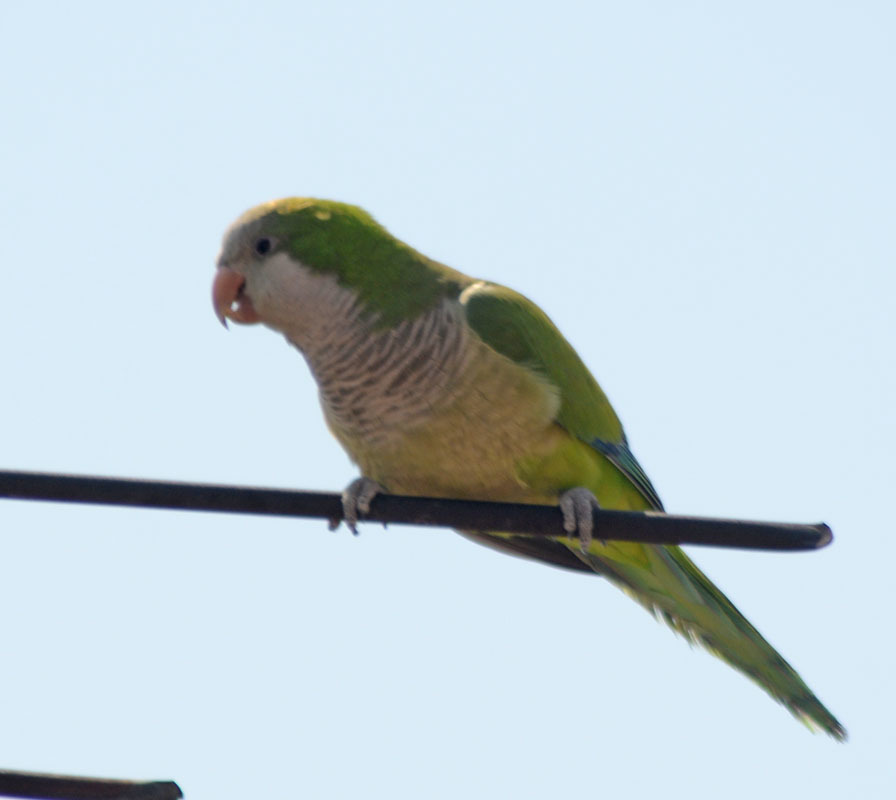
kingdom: Animalia
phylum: Chordata
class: Aves
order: Psittaciformes
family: Psittacidae
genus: Myiopsitta
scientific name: Myiopsitta monachus
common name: Monk parakeet
